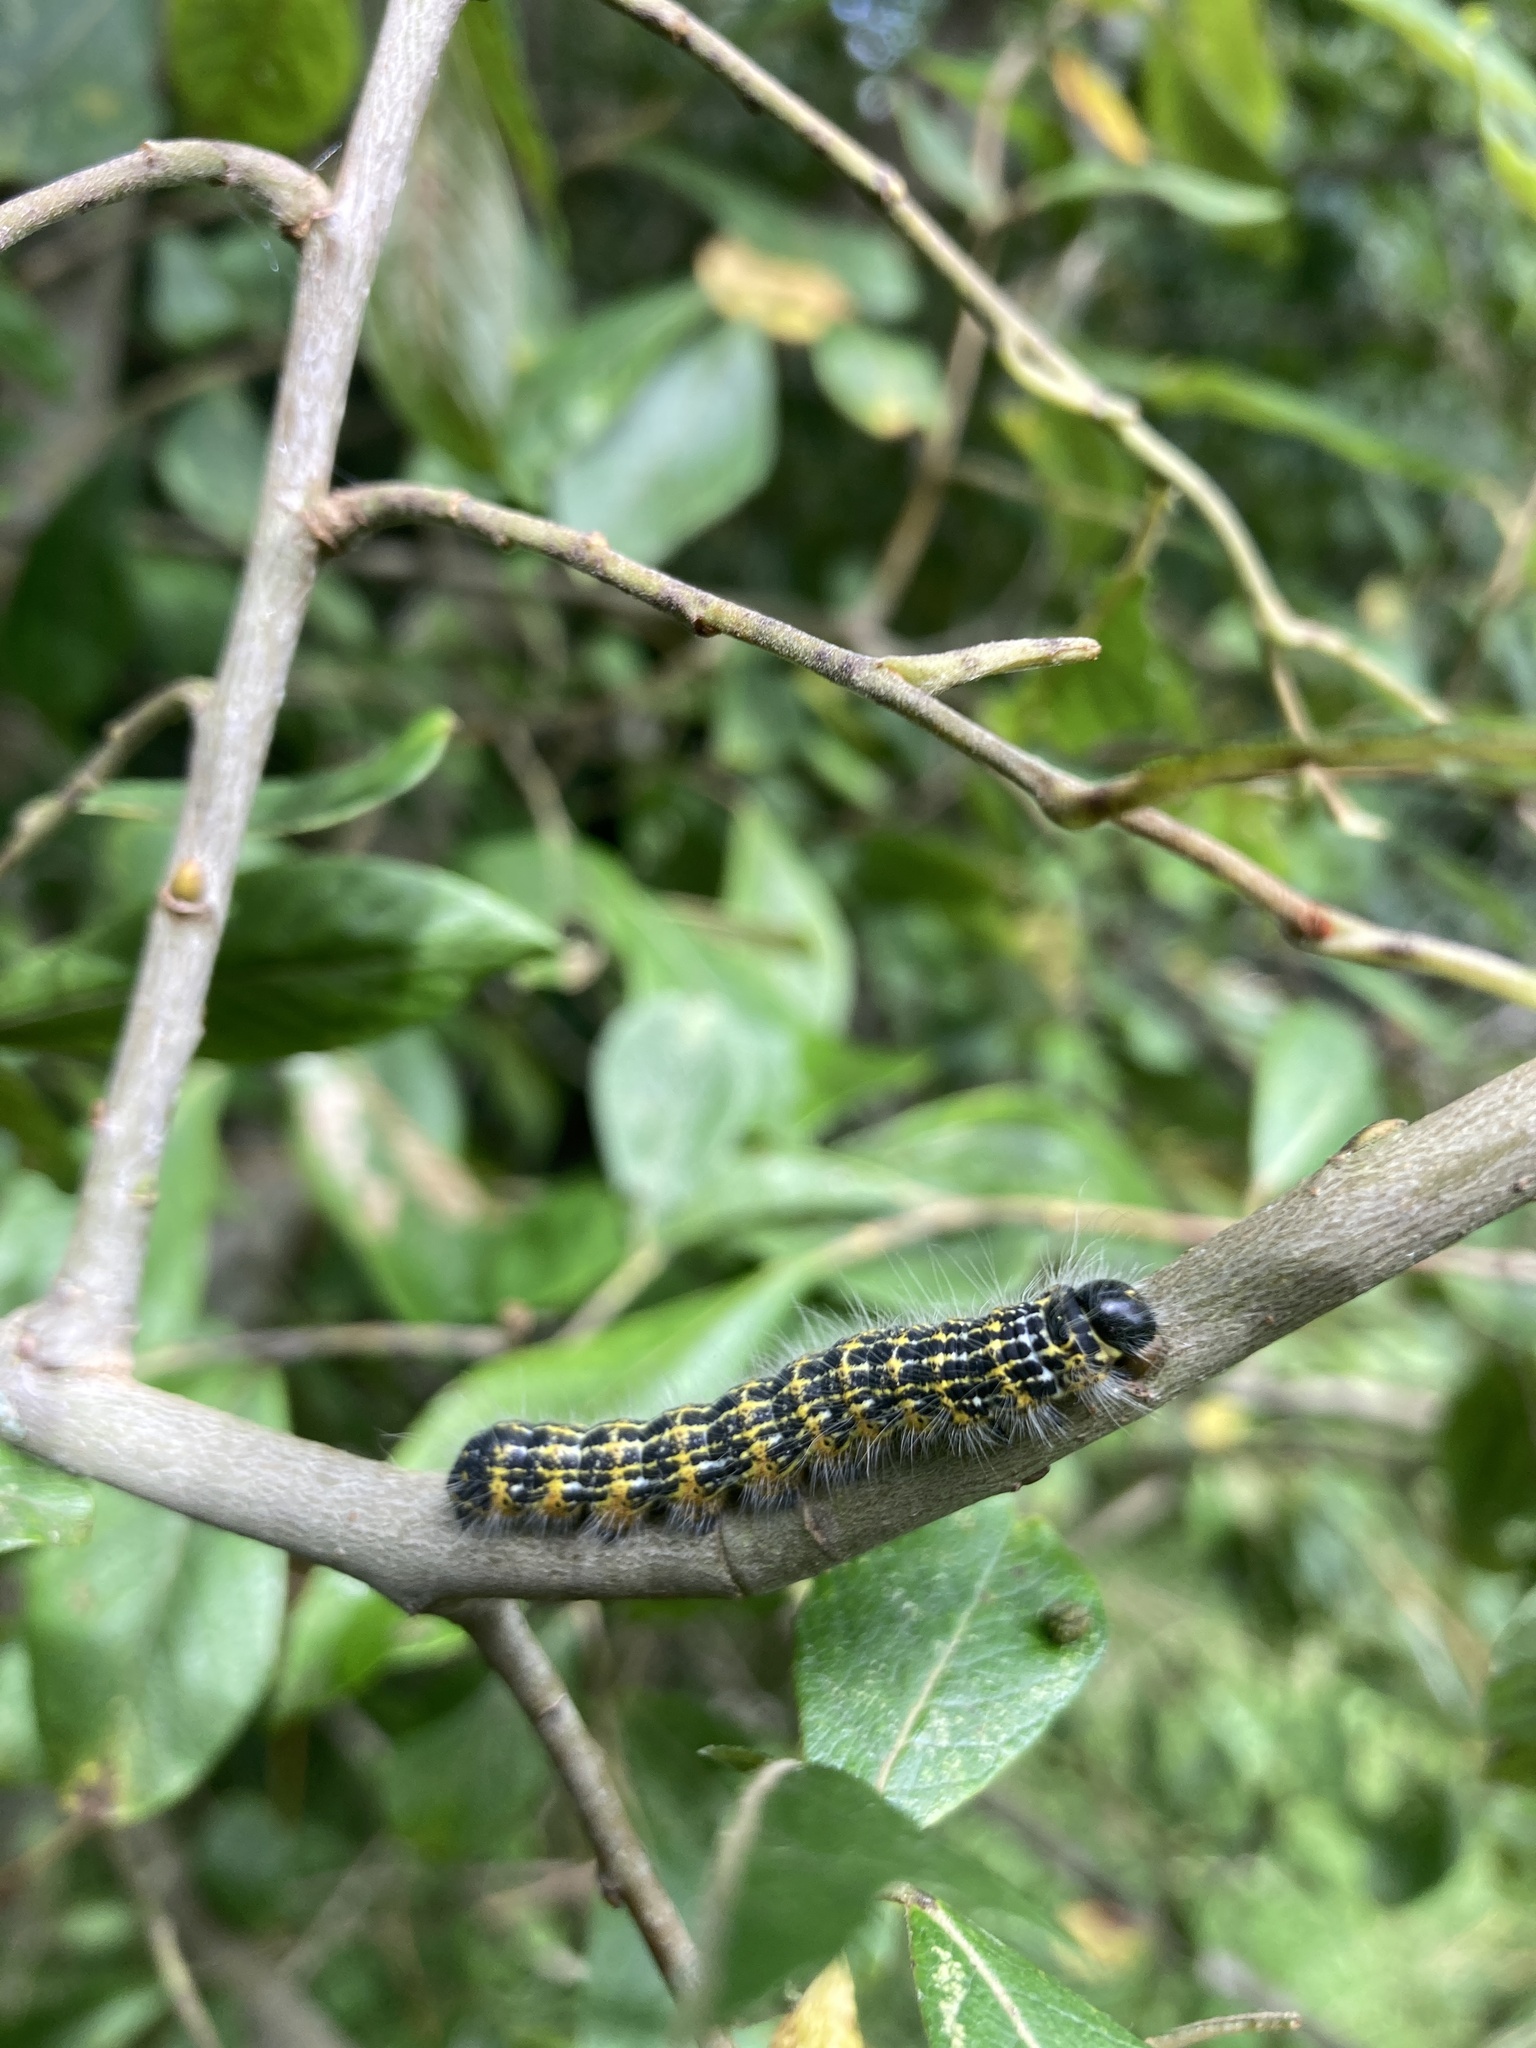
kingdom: Animalia
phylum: Arthropoda
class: Insecta
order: Lepidoptera
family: Notodontidae
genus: Phalera
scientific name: Phalera bucephala
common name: Buff-tip
